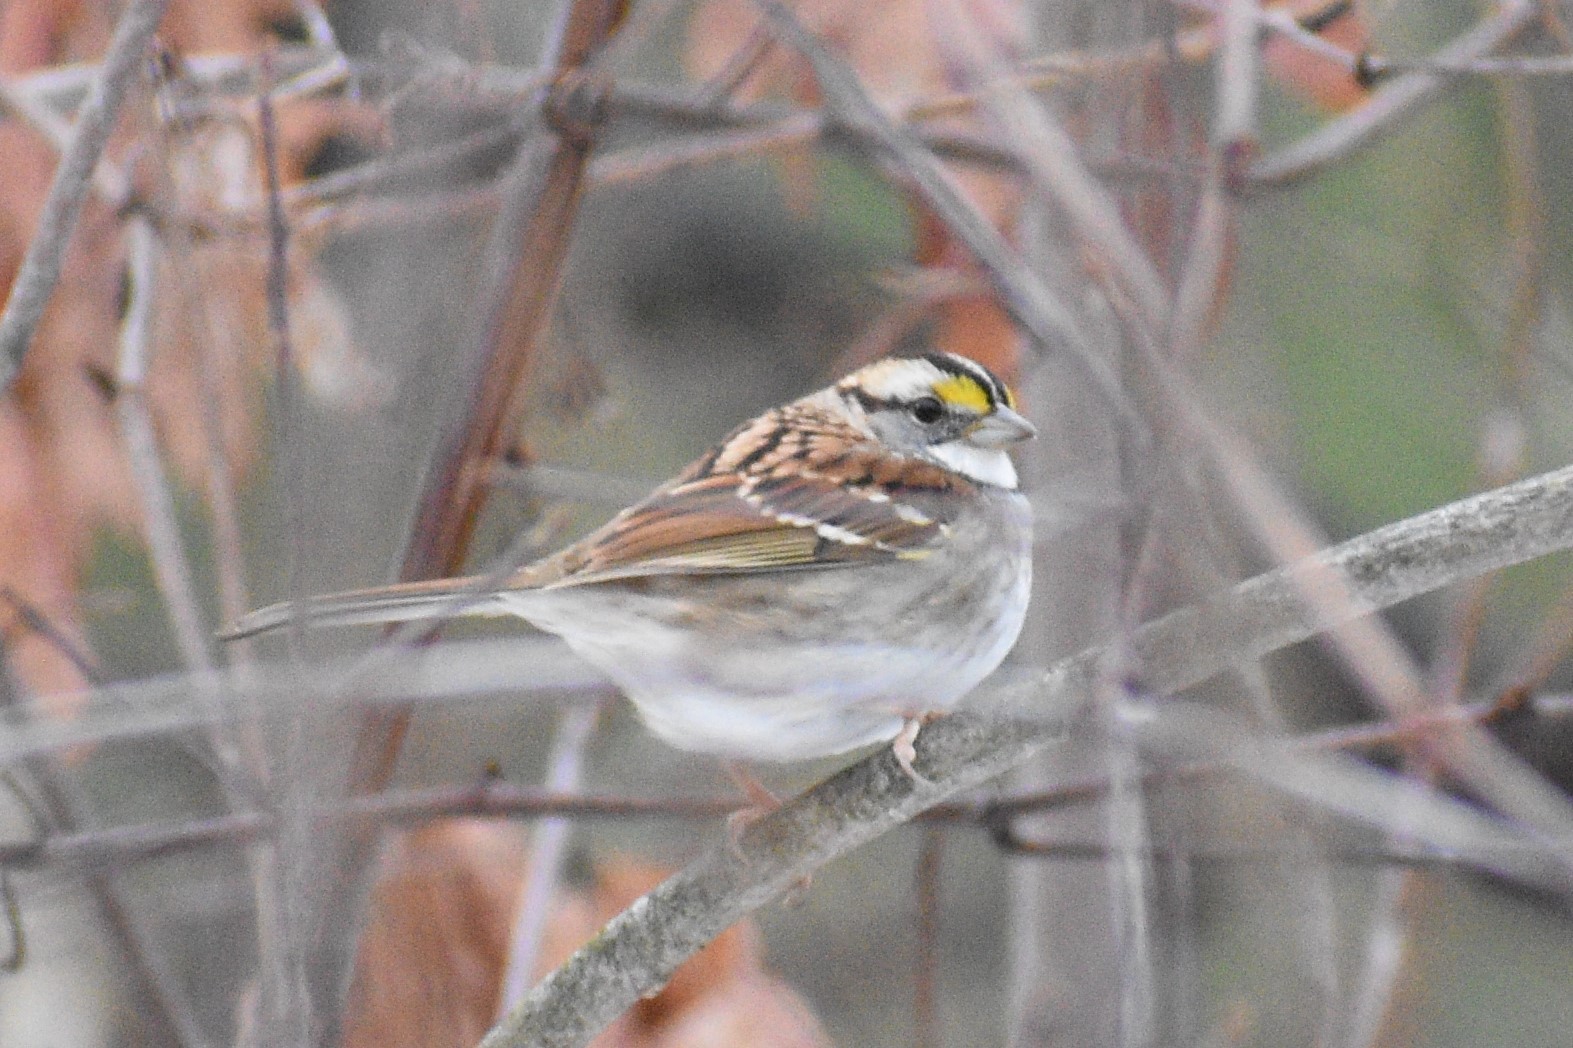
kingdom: Animalia
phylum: Chordata
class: Aves
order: Passeriformes
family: Passerellidae
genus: Zonotrichia
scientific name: Zonotrichia albicollis
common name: White-throated sparrow
